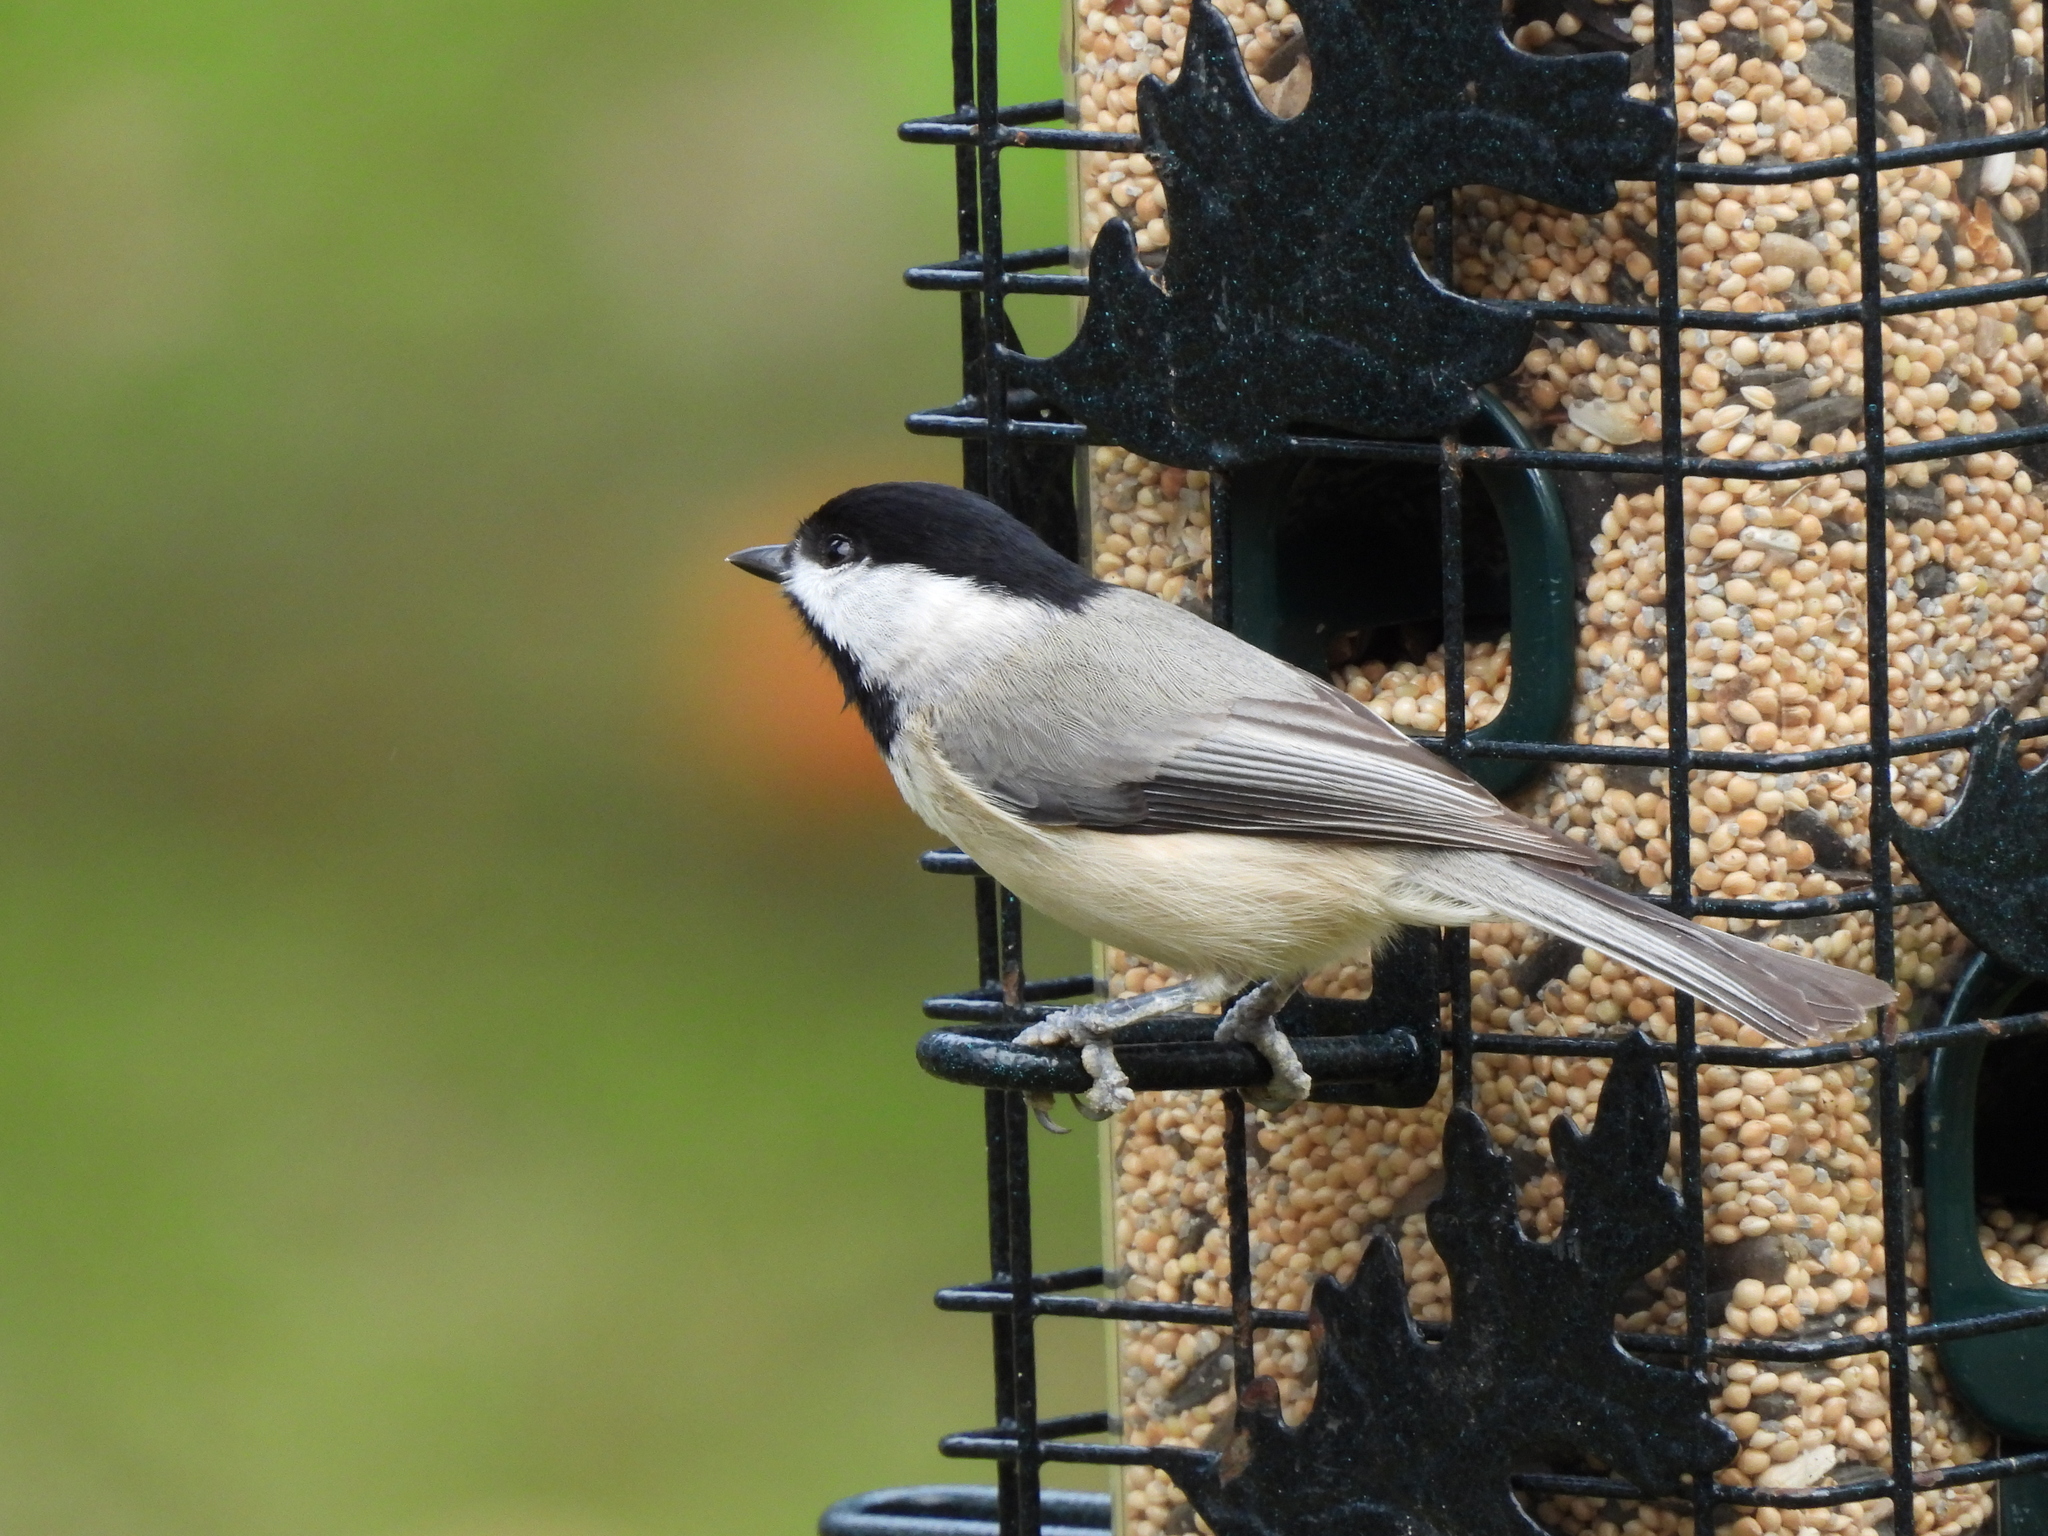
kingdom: Animalia
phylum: Chordata
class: Aves
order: Passeriformes
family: Paridae
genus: Poecile
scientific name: Poecile carolinensis
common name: Carolina chickadee
